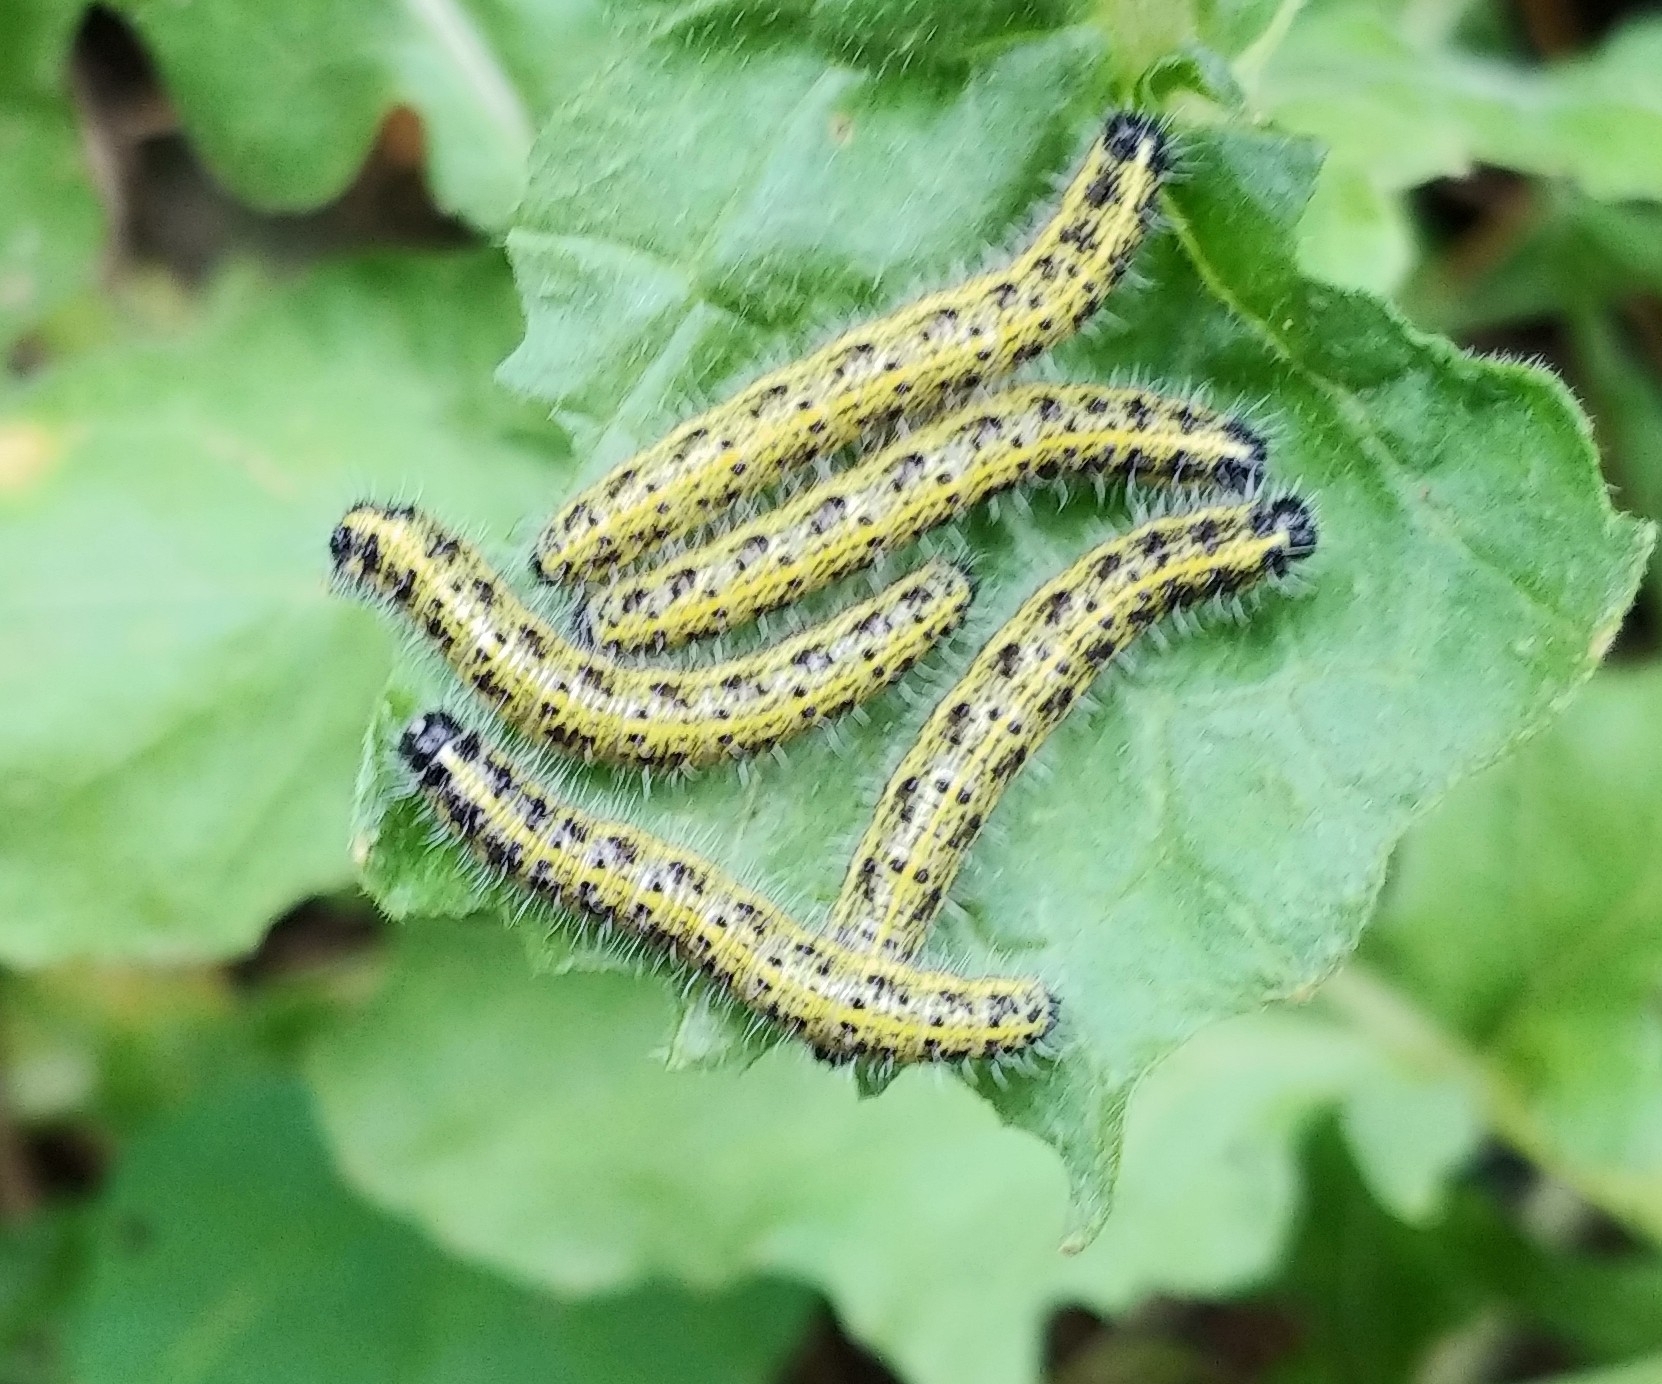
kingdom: Animalia
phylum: Arthropoda
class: Insecta
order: Lepidoptera
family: Pieridae
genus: Pieris
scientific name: Pieris brassicae
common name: Large white
